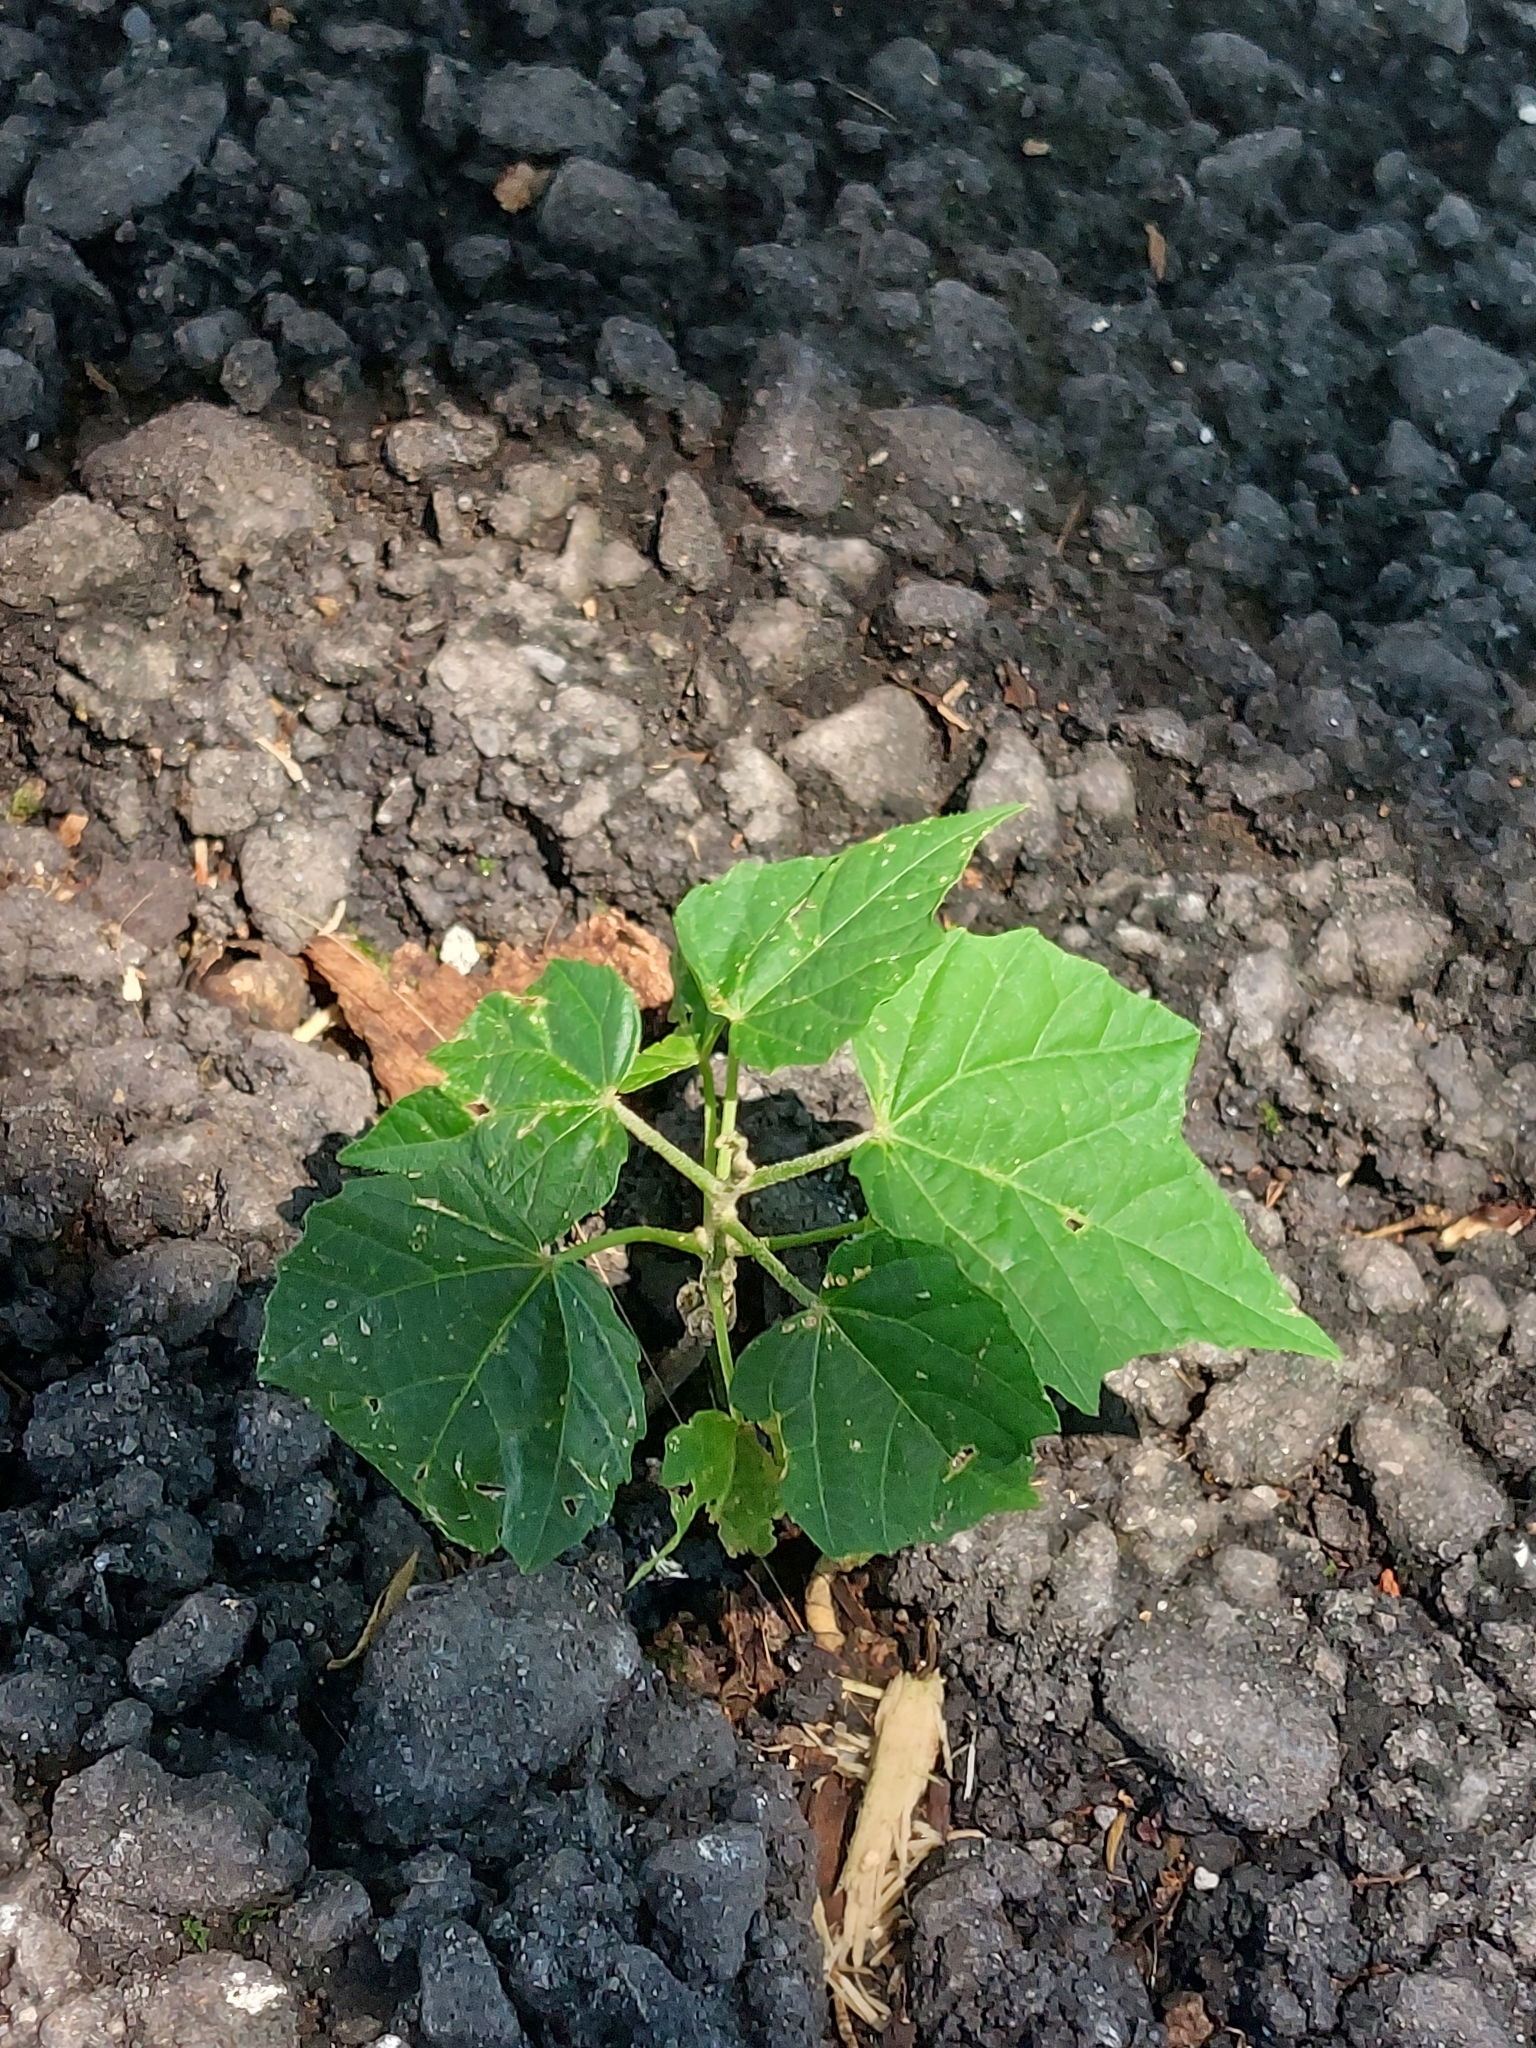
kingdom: Plantae
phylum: Tracheophyta
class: Magnoliopsida
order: Malpighiales
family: Euphorbiaceae
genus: Melanolepis
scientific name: Melanolepis multiglandulosa
